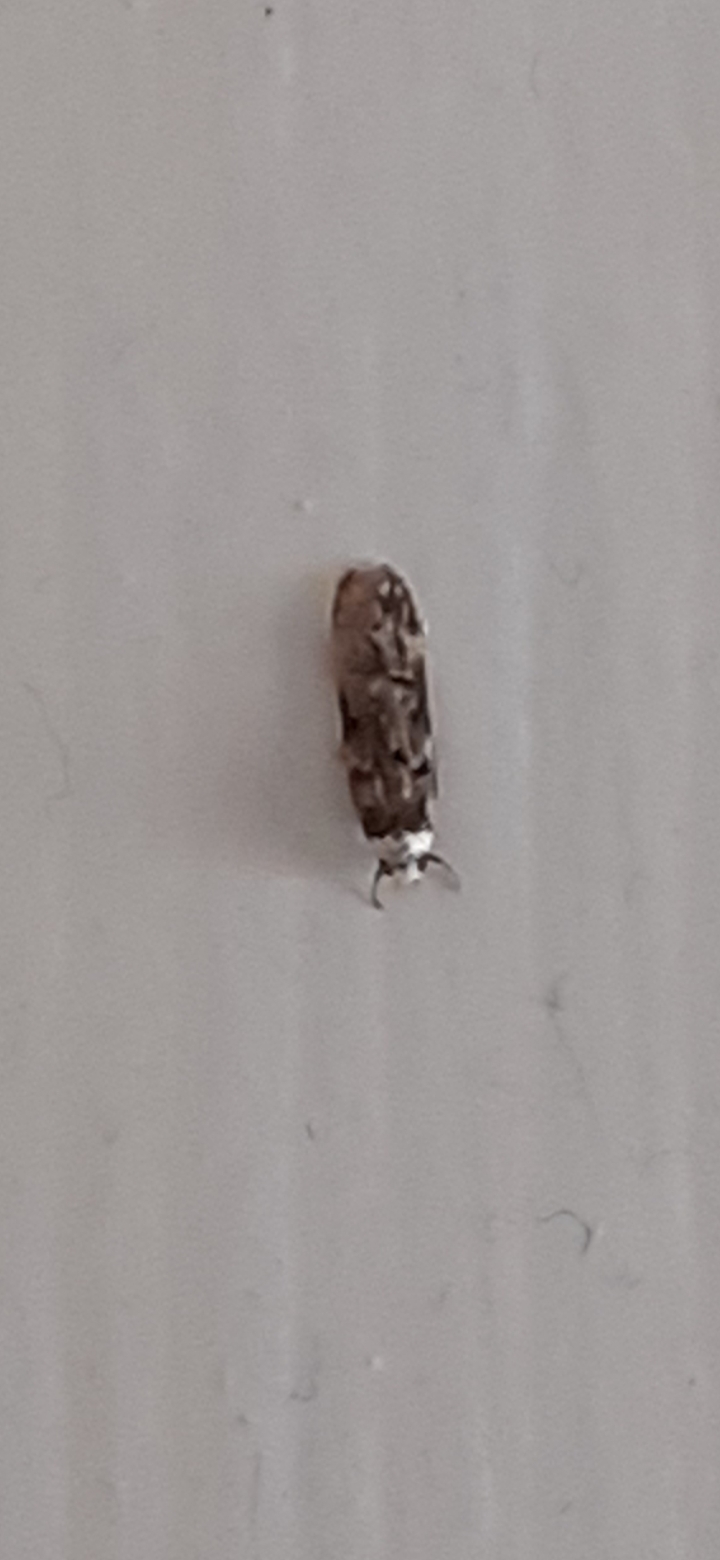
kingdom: Animalia
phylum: Arthropoda
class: Insecta
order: Lepidoptera
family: Oecophoridae
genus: Endrosis
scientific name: Endrosis sarcitrella
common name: White-shouldered house moth
